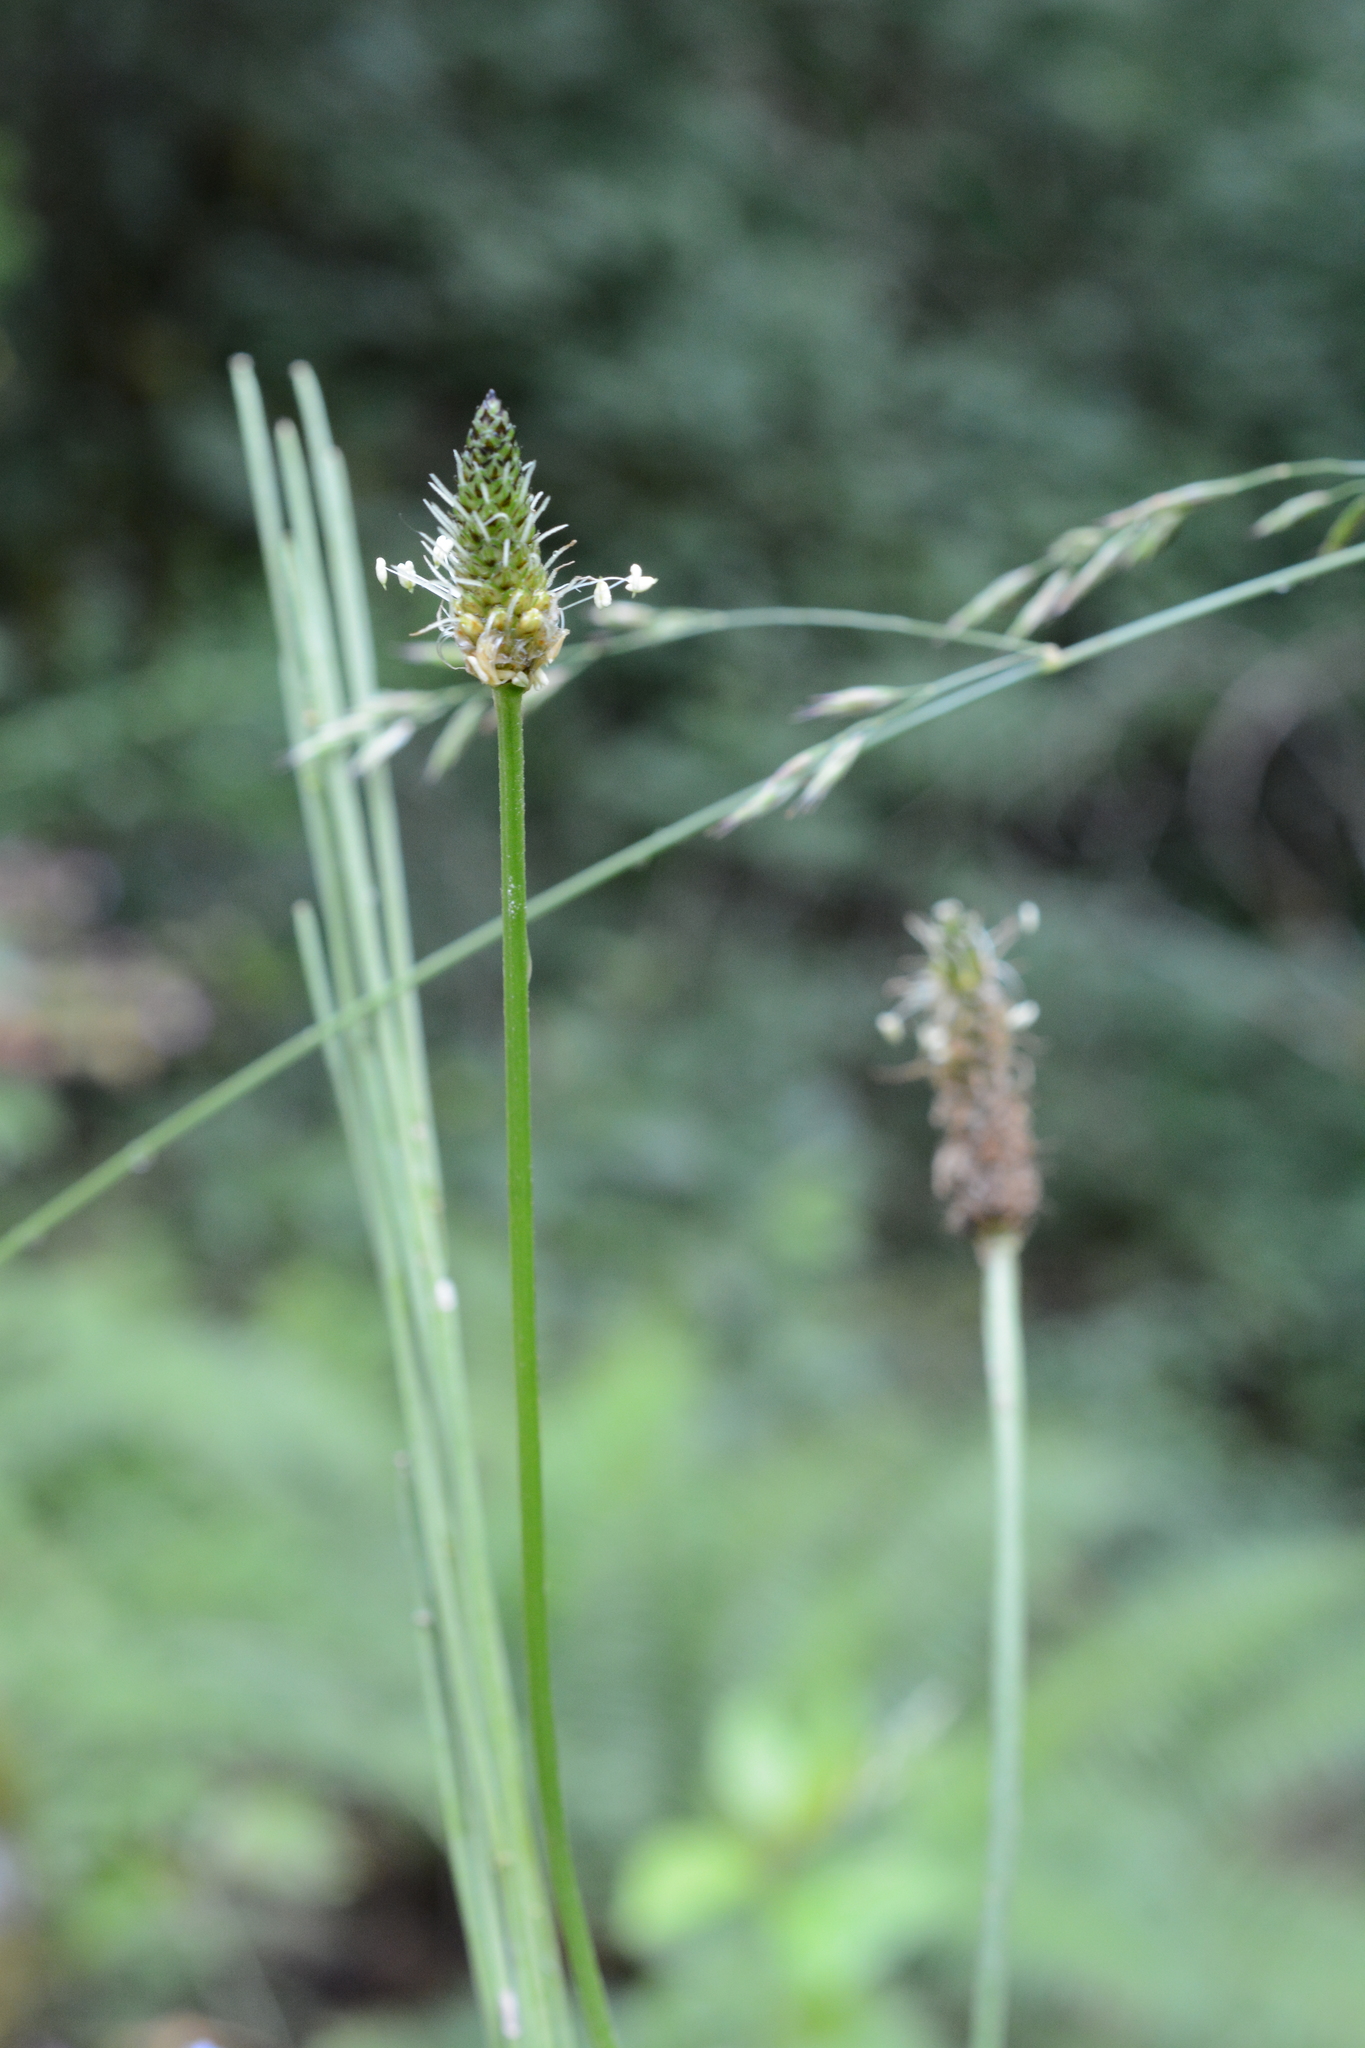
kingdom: Plantae
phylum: Tracheophyta
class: Magnoliopsida
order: Lamiales
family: Plantaginaceae
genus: Plantago
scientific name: Plantago lanceolata
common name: Ribwort plantain
